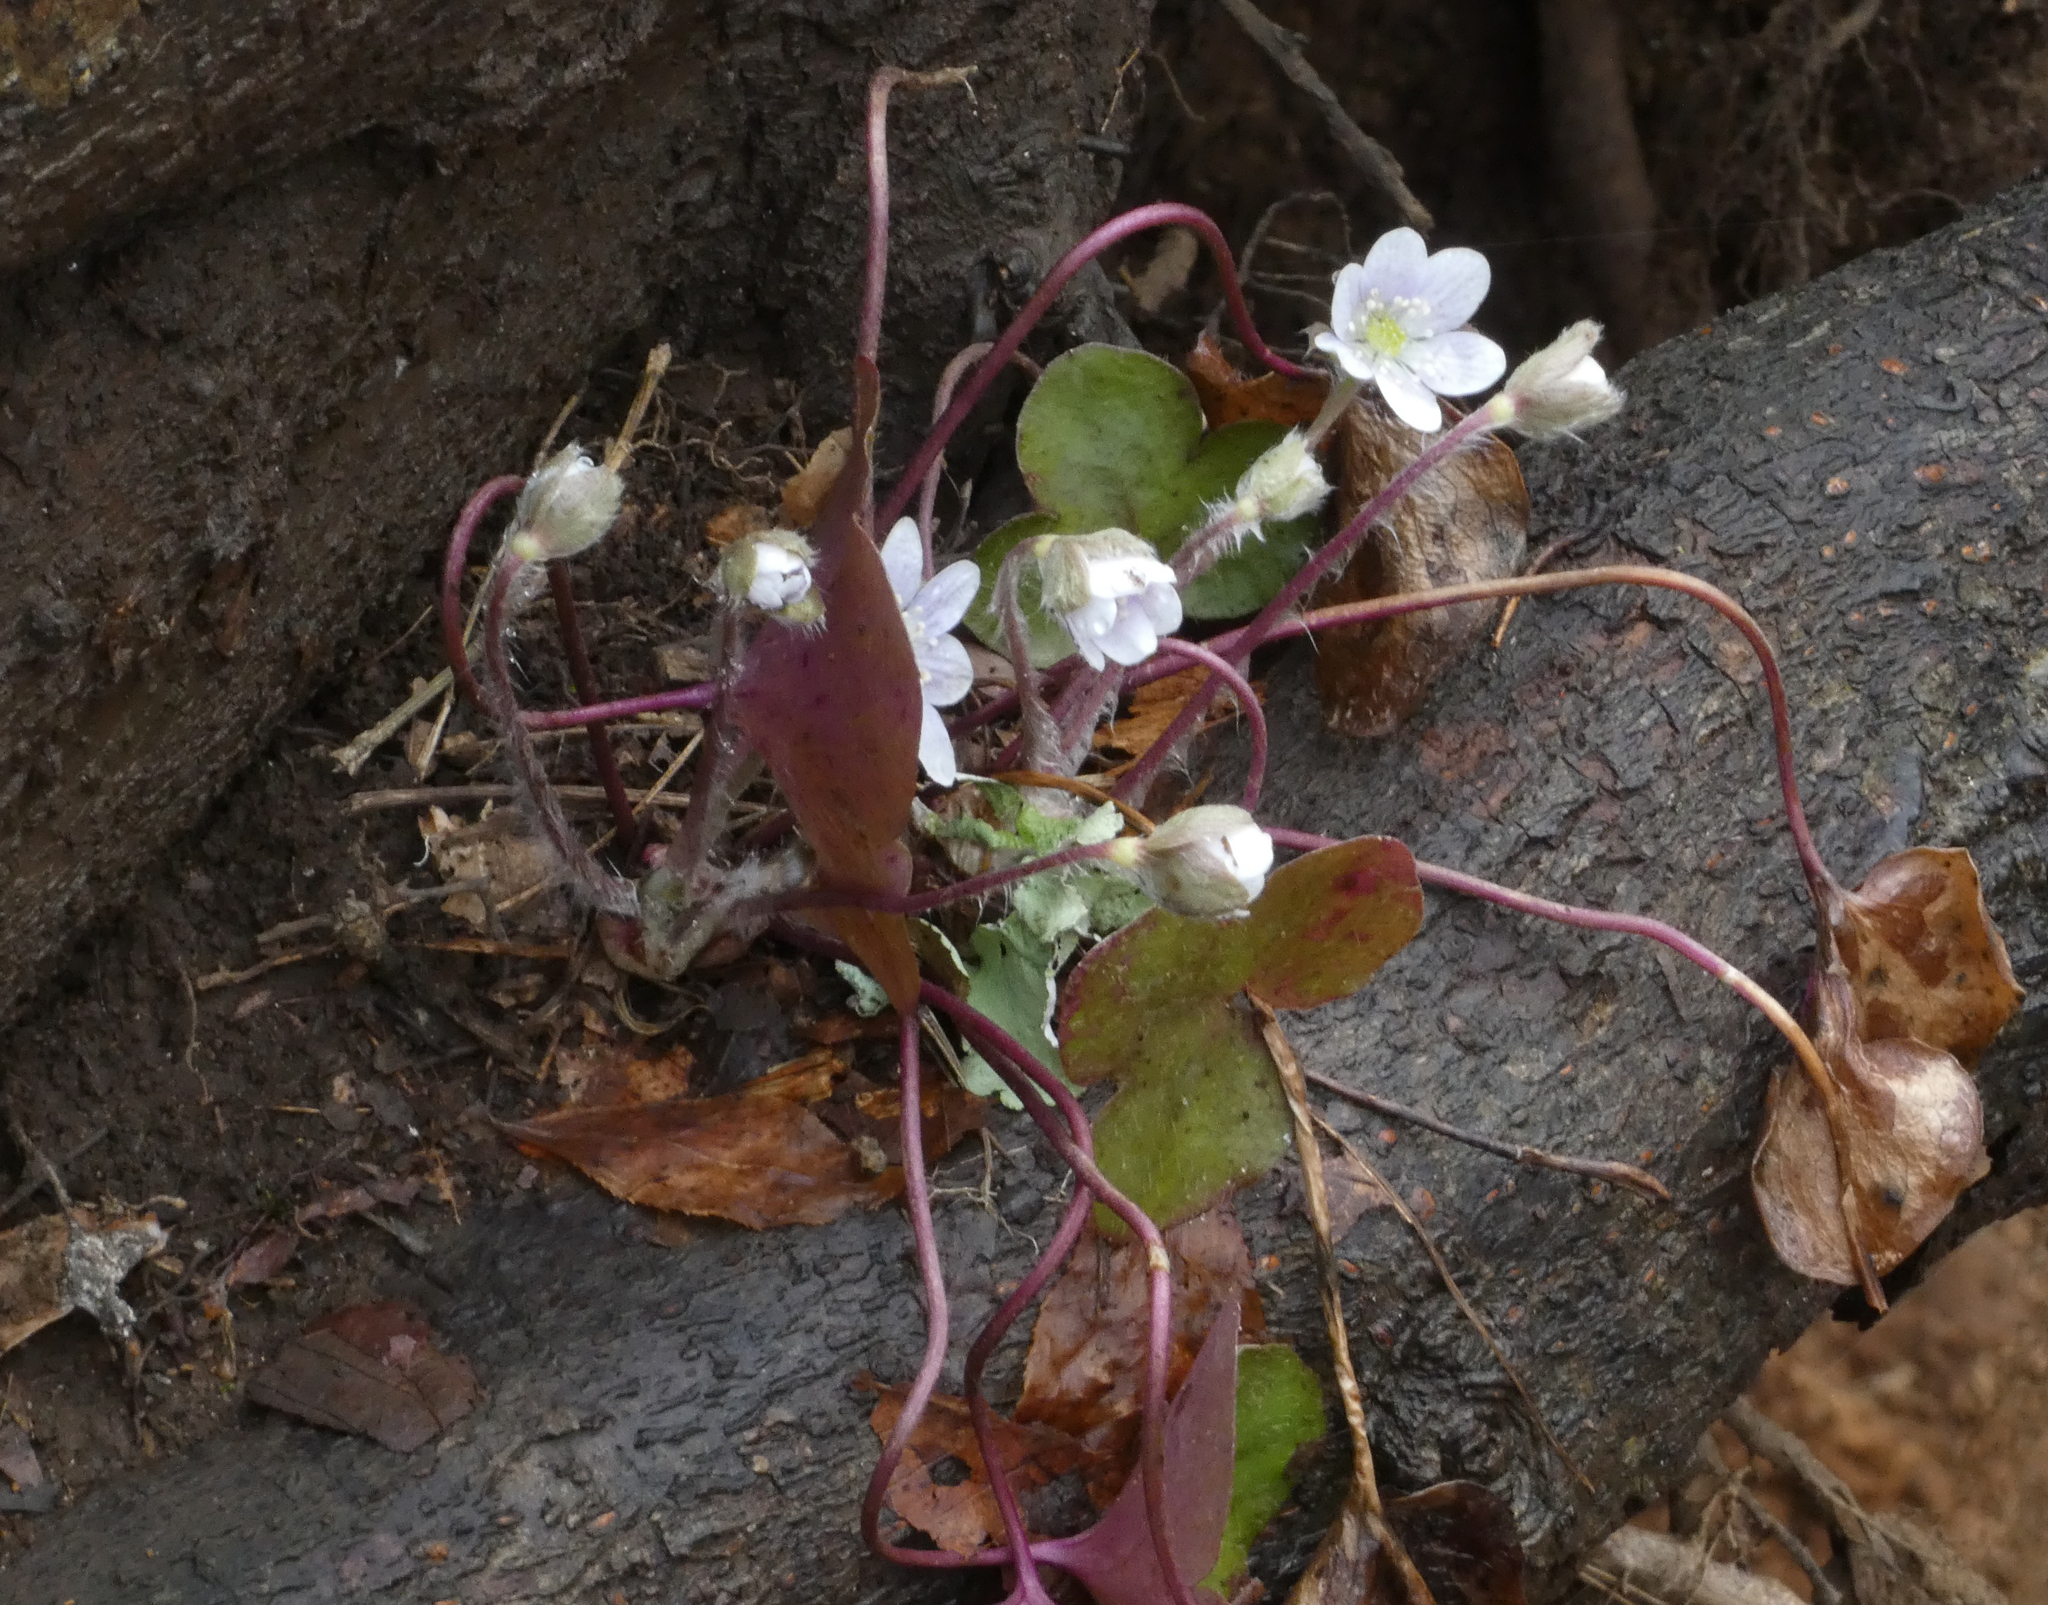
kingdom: Plantae
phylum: Tracheophyta
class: Magnoliopsida
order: Ranunculales
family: Ranunculaceae
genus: Hepatica
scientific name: Hepatica americana
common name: American hepatica
